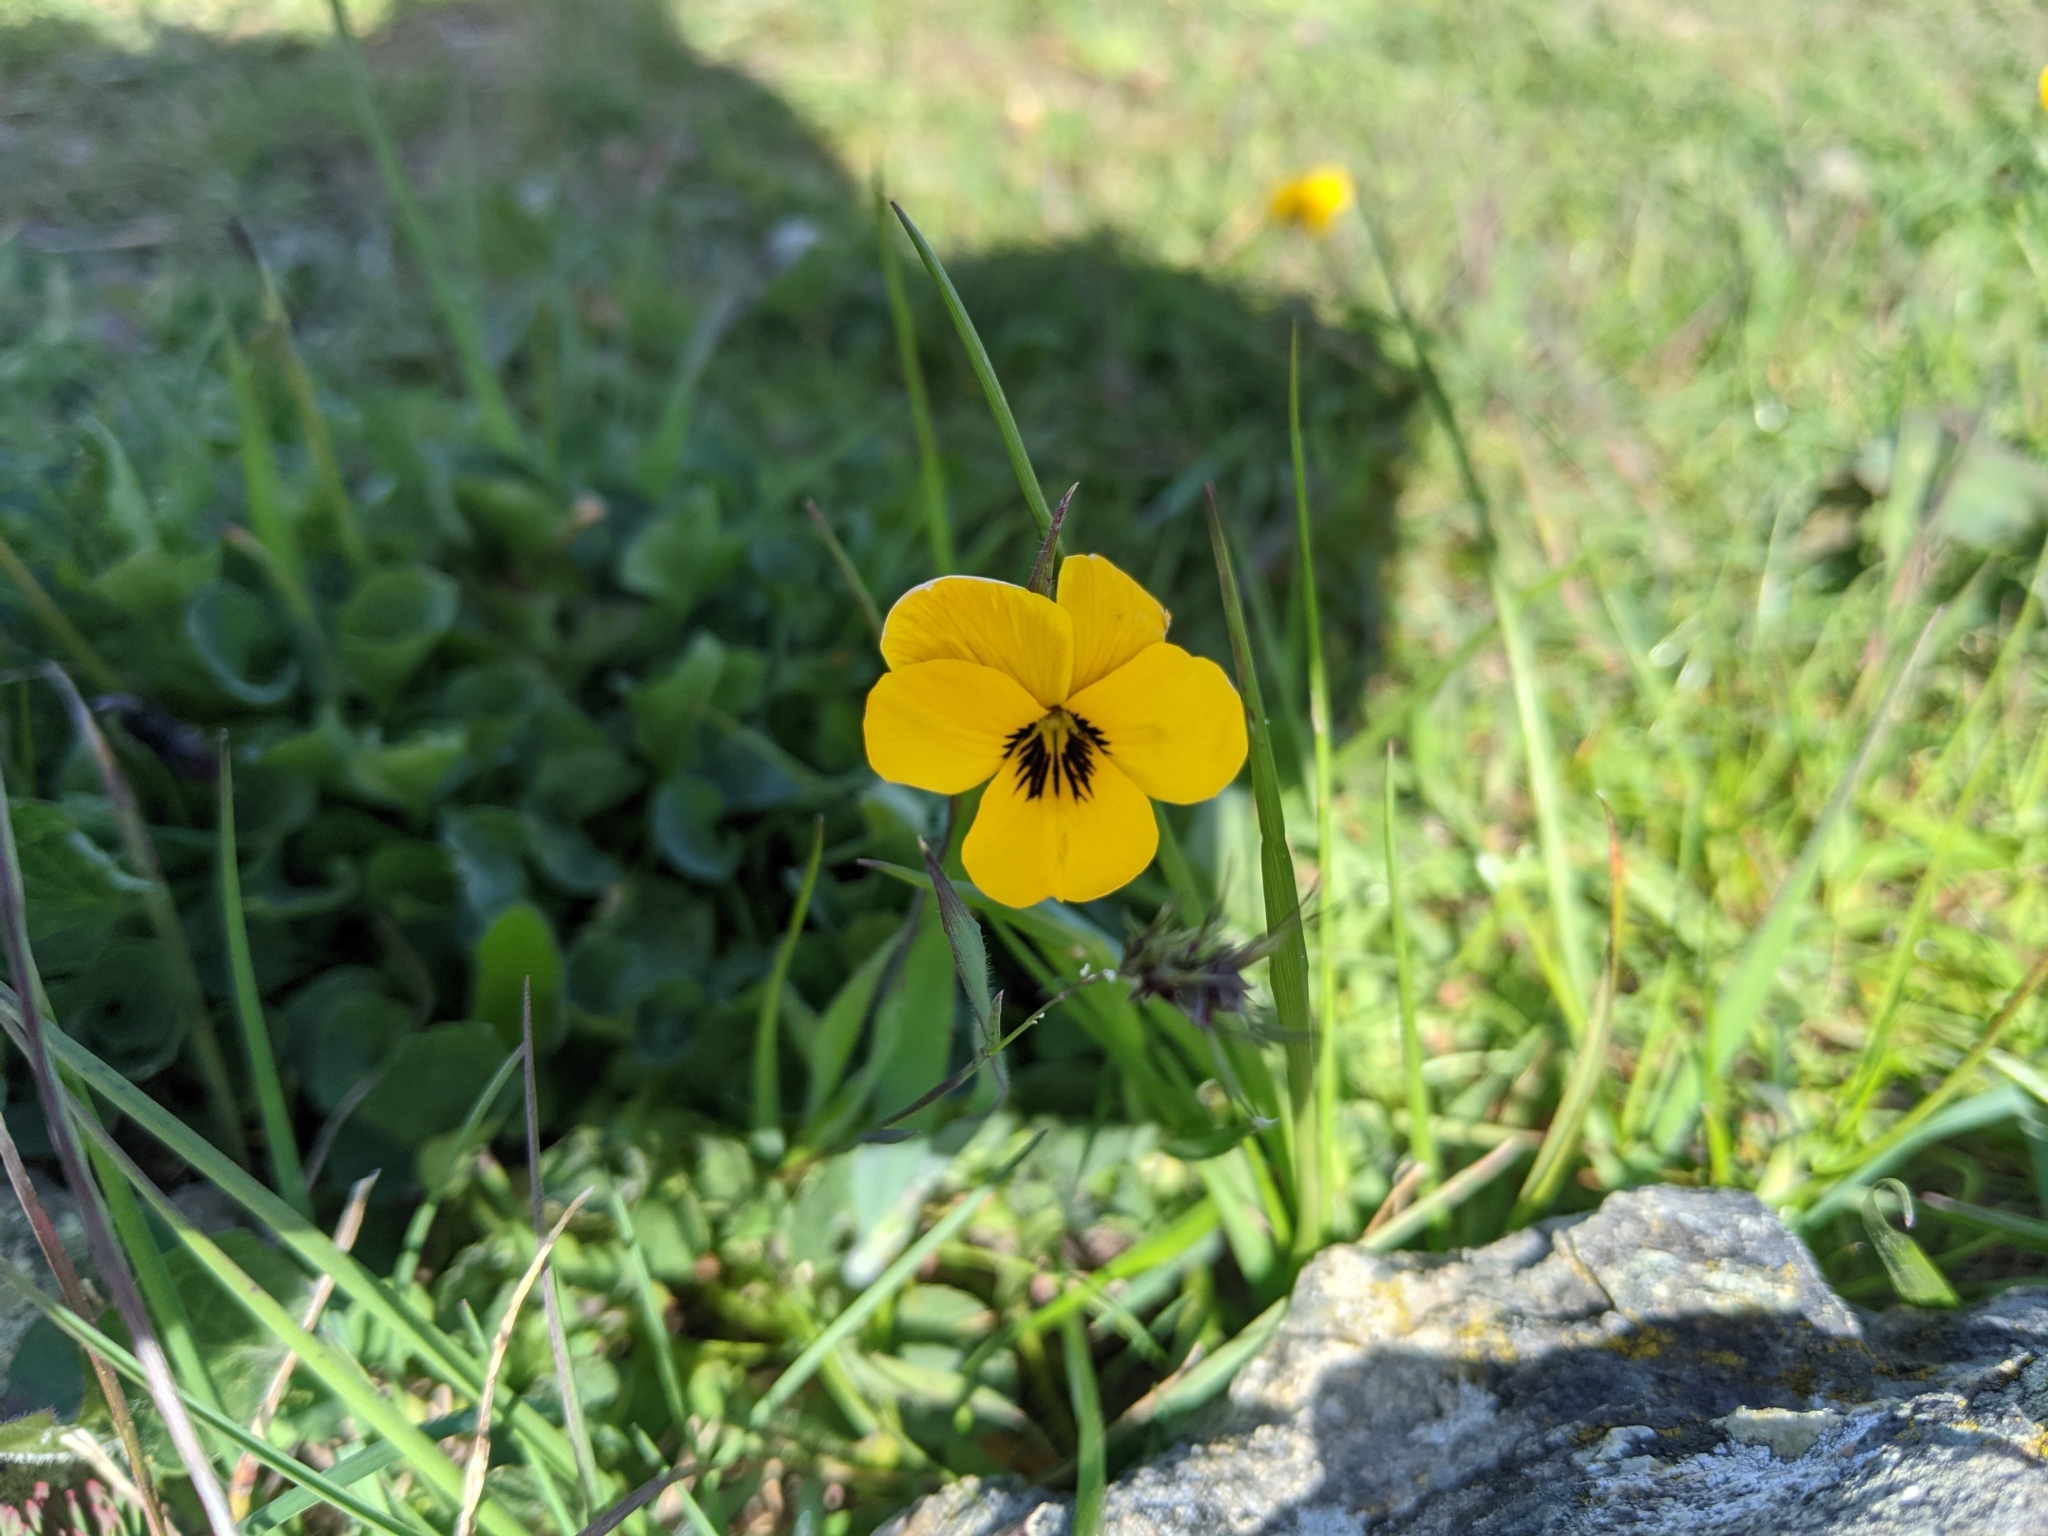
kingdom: Plantae
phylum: Tracheophyta
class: Magnoliopsida
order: Malpighiales
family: Violaceae
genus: Viola
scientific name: Viola pedunculata
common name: California golden violet
